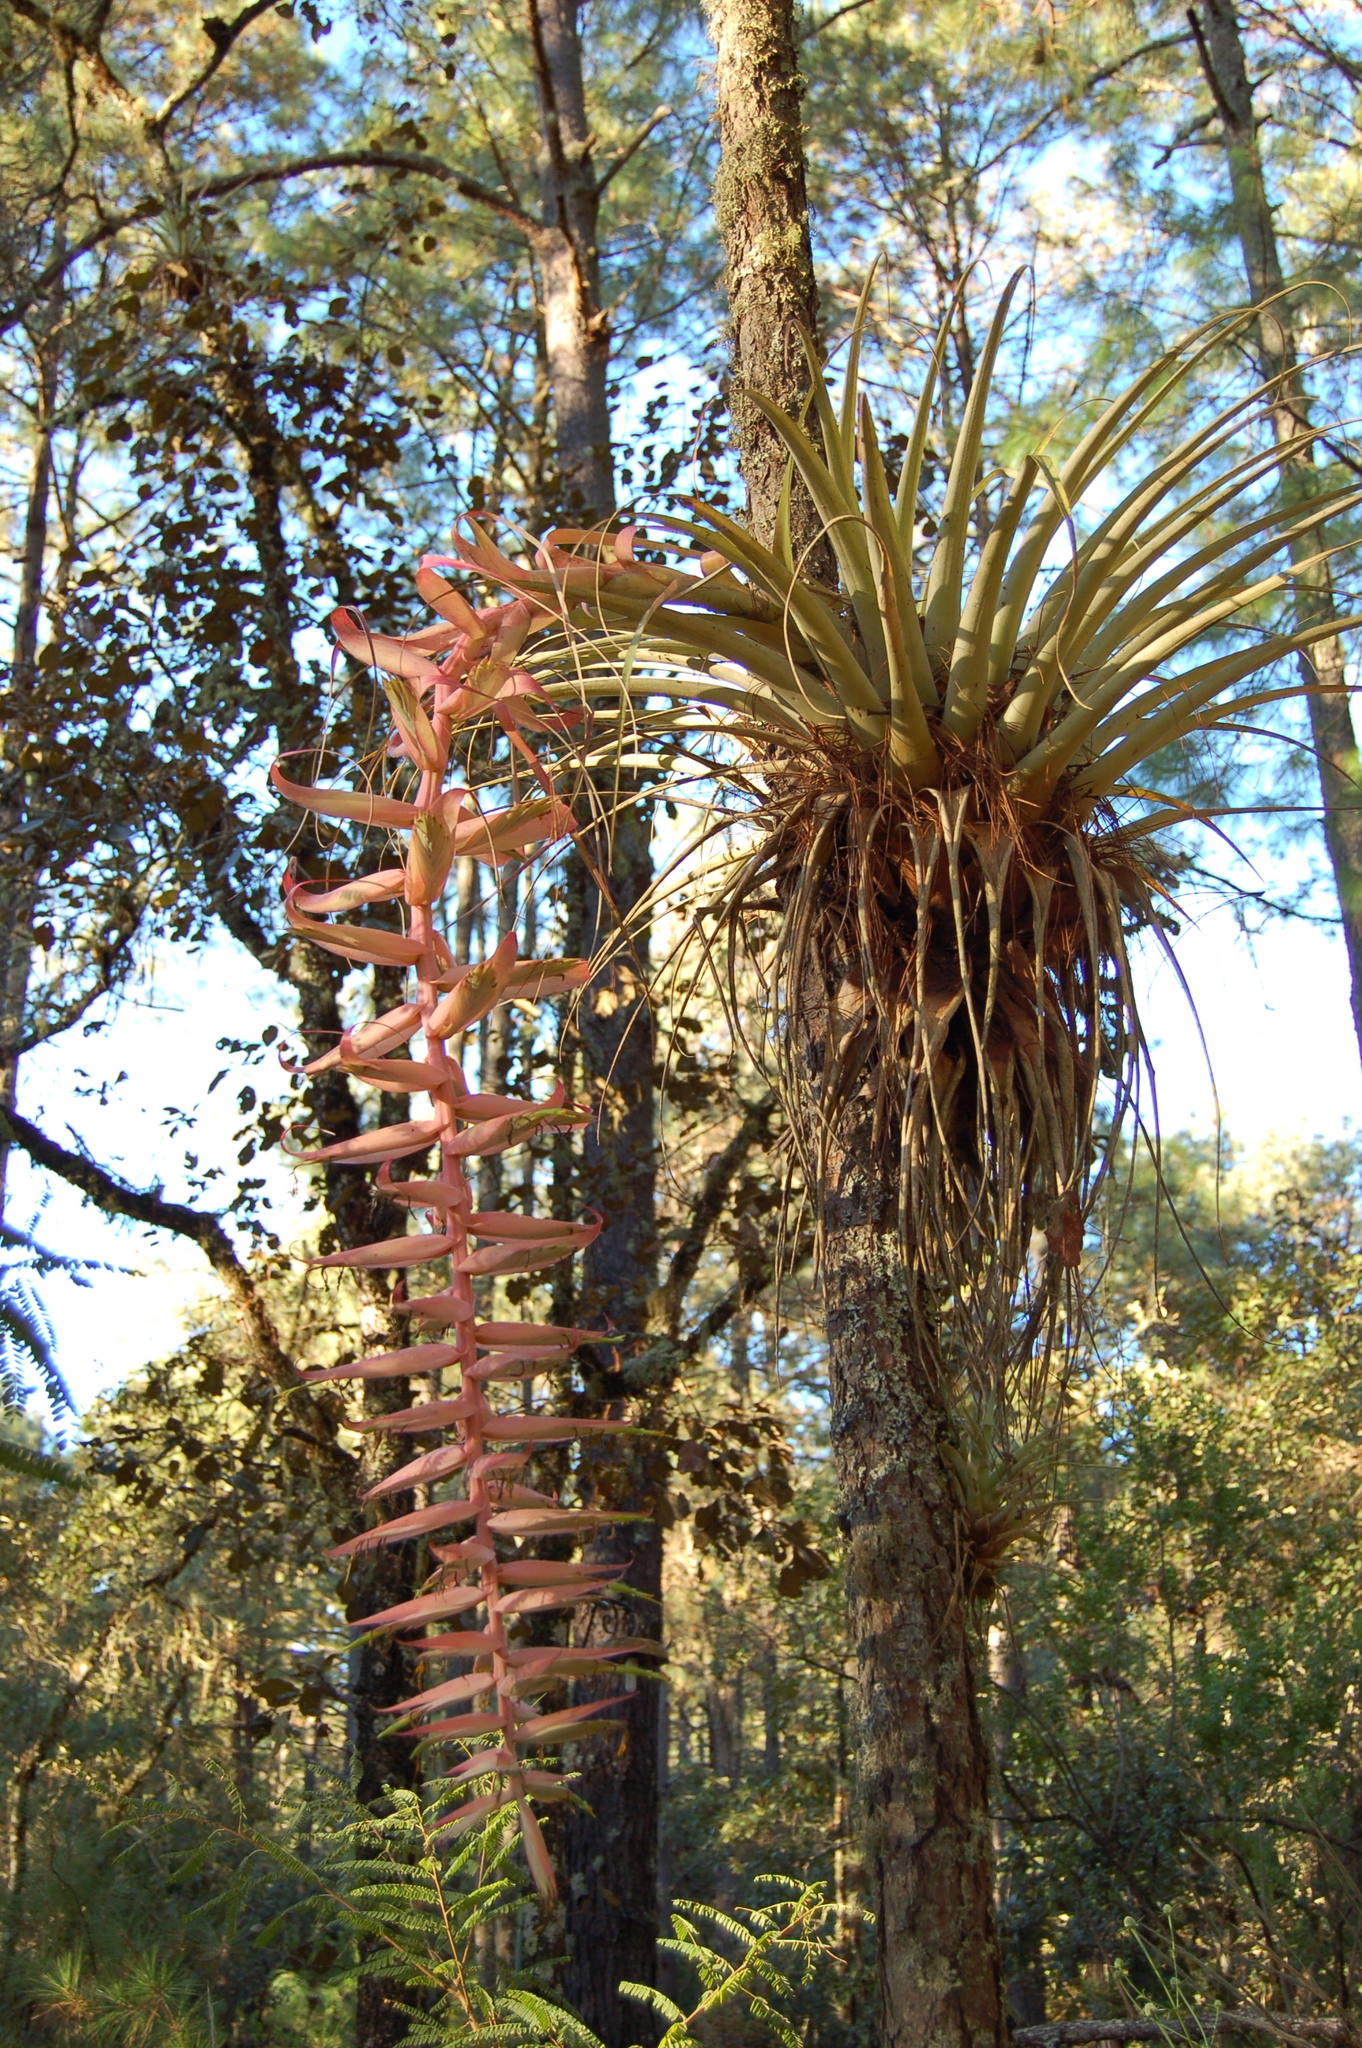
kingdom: Plantae
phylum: Tracheophyta
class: Liliopsida
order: Poales
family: Bromeliaceae
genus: Tillandsia
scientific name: Tillandsia prodigiosa
